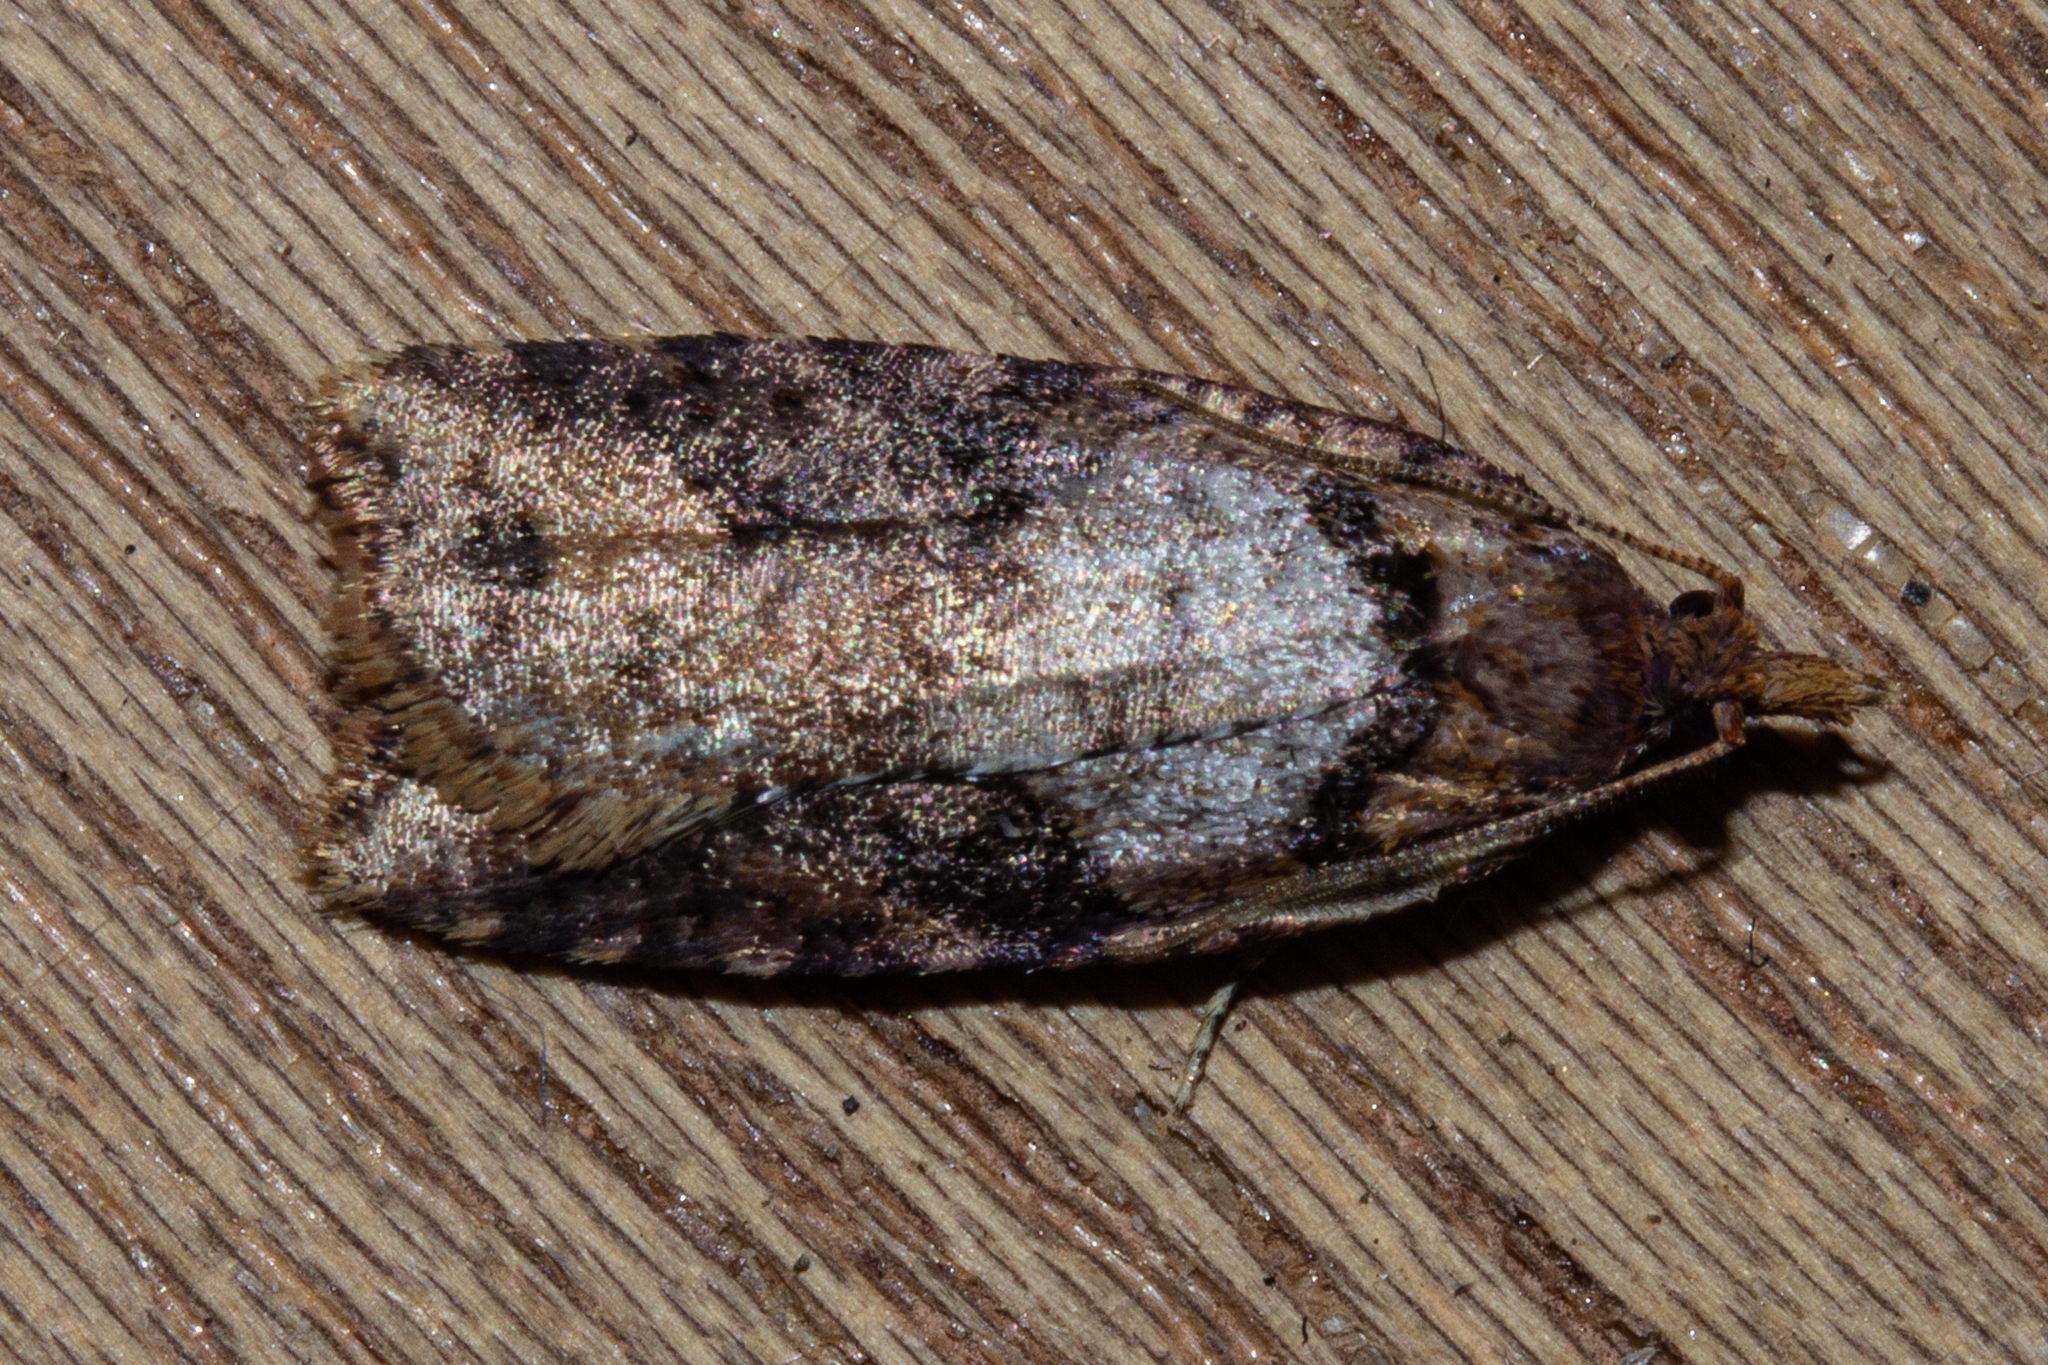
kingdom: Animalia
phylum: Arthropoda
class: Insecta
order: Lepidoptera
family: Tortricidae
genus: Ctenopseustis
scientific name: Ctenopseustis obliquana
